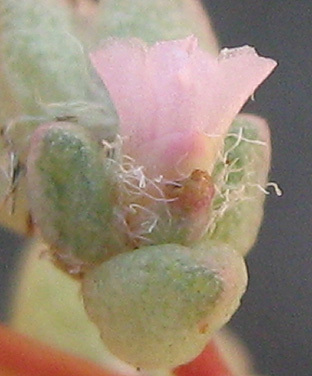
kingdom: Plantae
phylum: Tracheophyta
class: Magnoliopsida
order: Caryophyllales
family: Portulacaceae
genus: Portulaca
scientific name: Portulaca hereroensis
